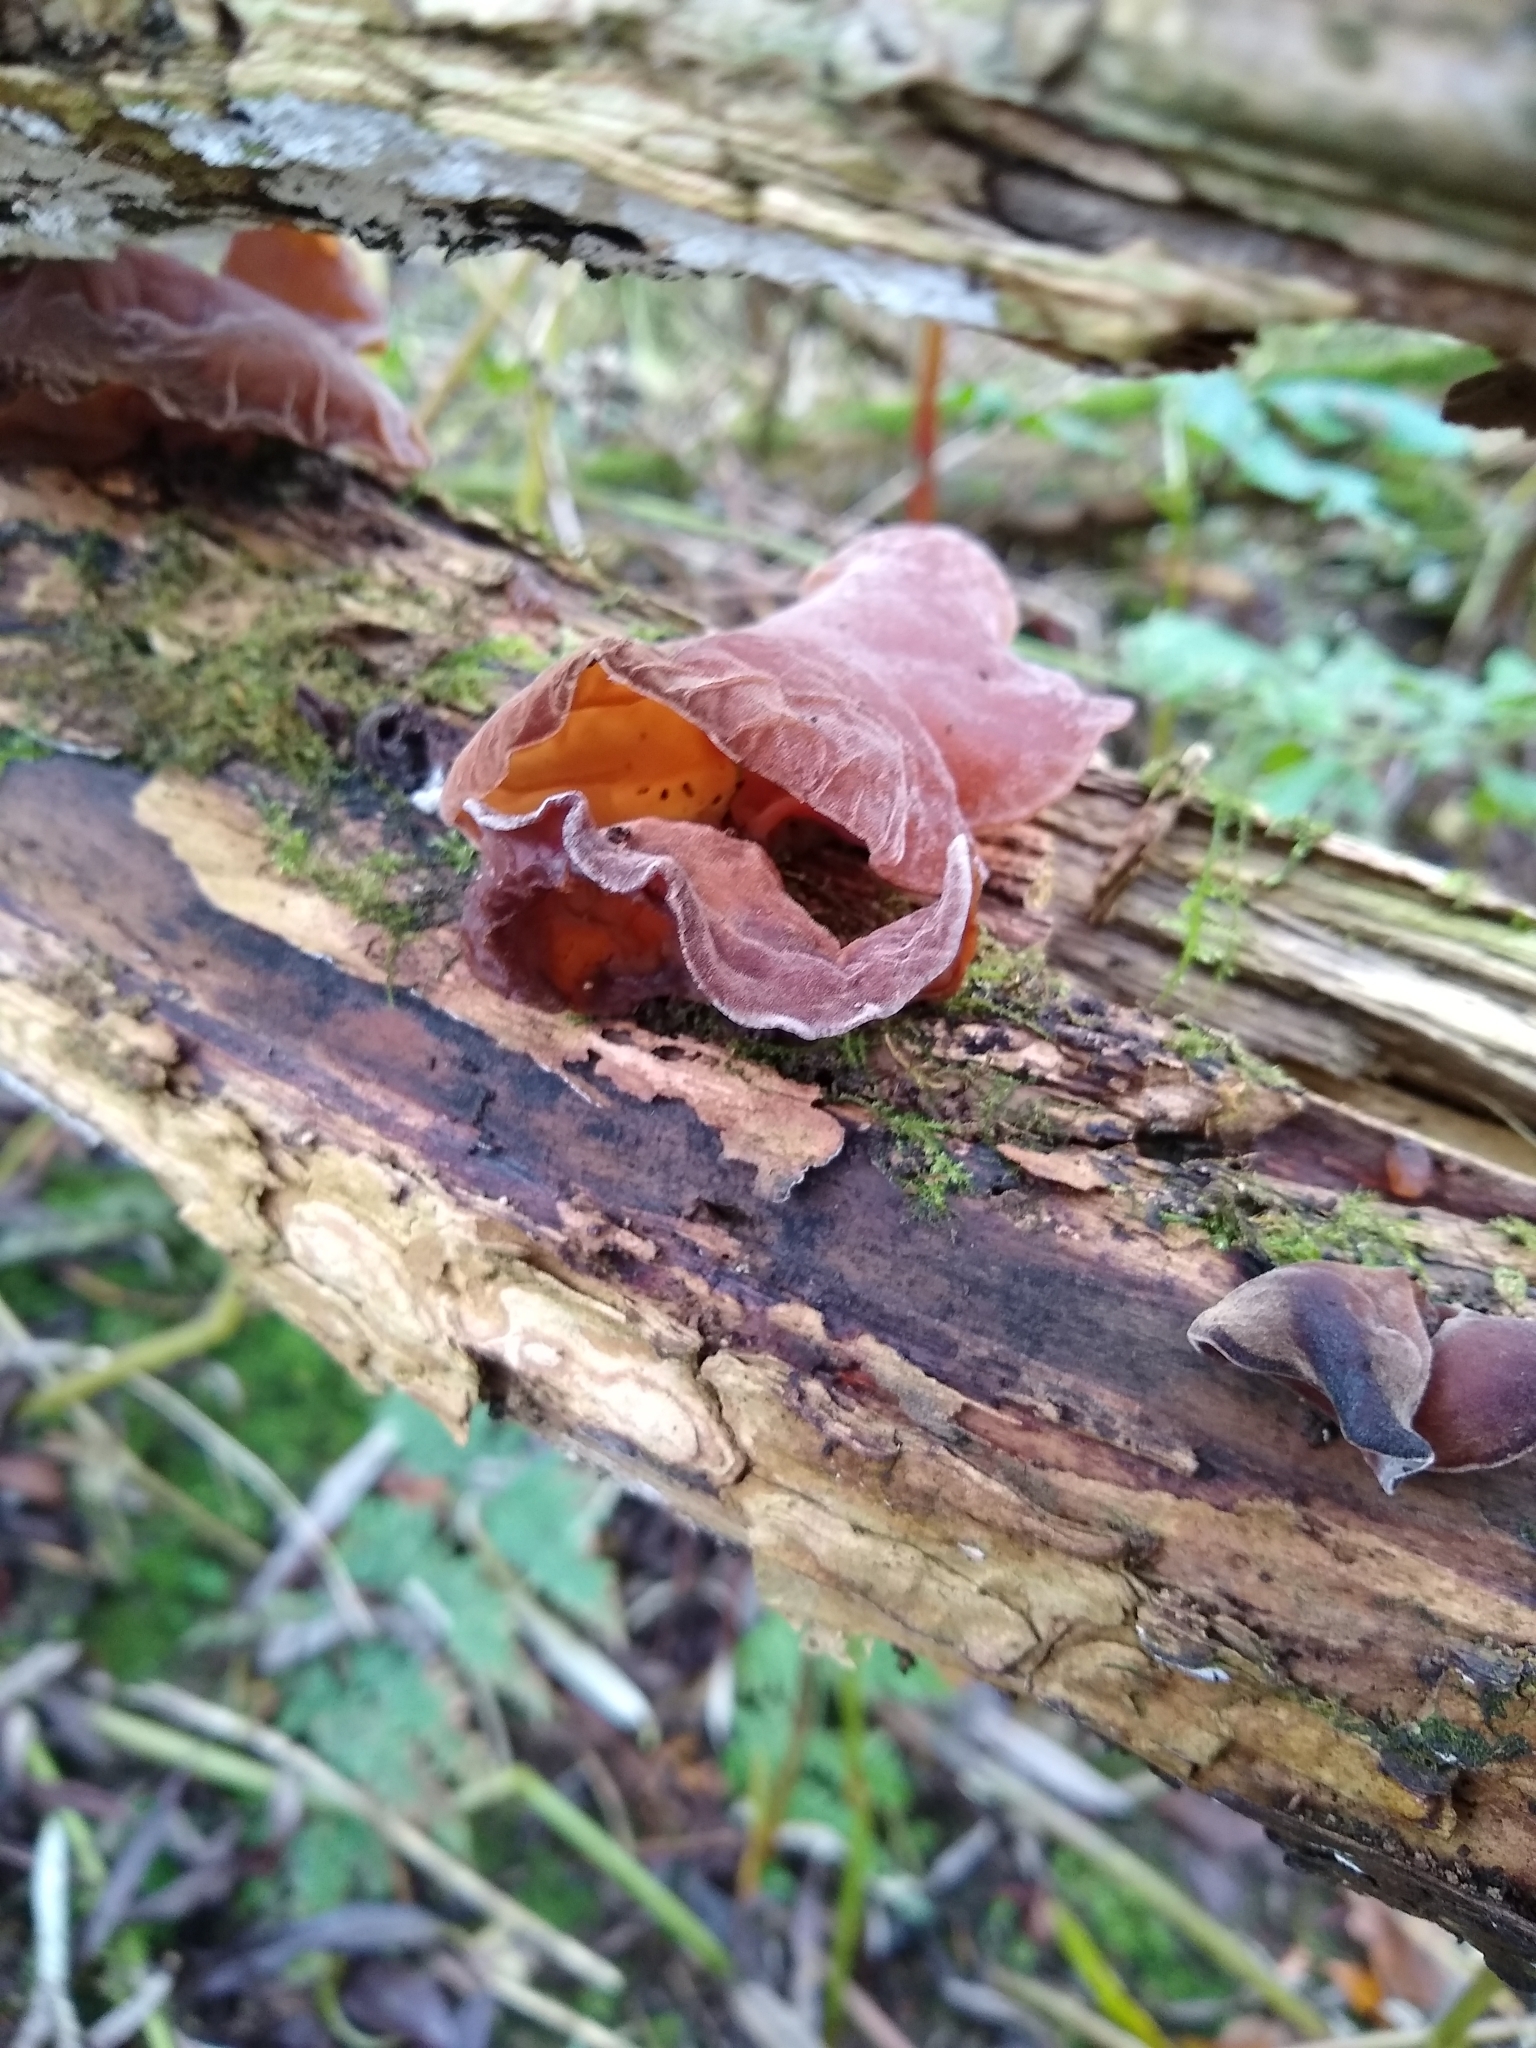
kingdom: Fungi
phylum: Basidiomycota
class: Agaricomycetes
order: Auriculariales
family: Auriculariaceae
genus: Auricularia
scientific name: Auricularia auricula-judae
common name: Jelly ear
